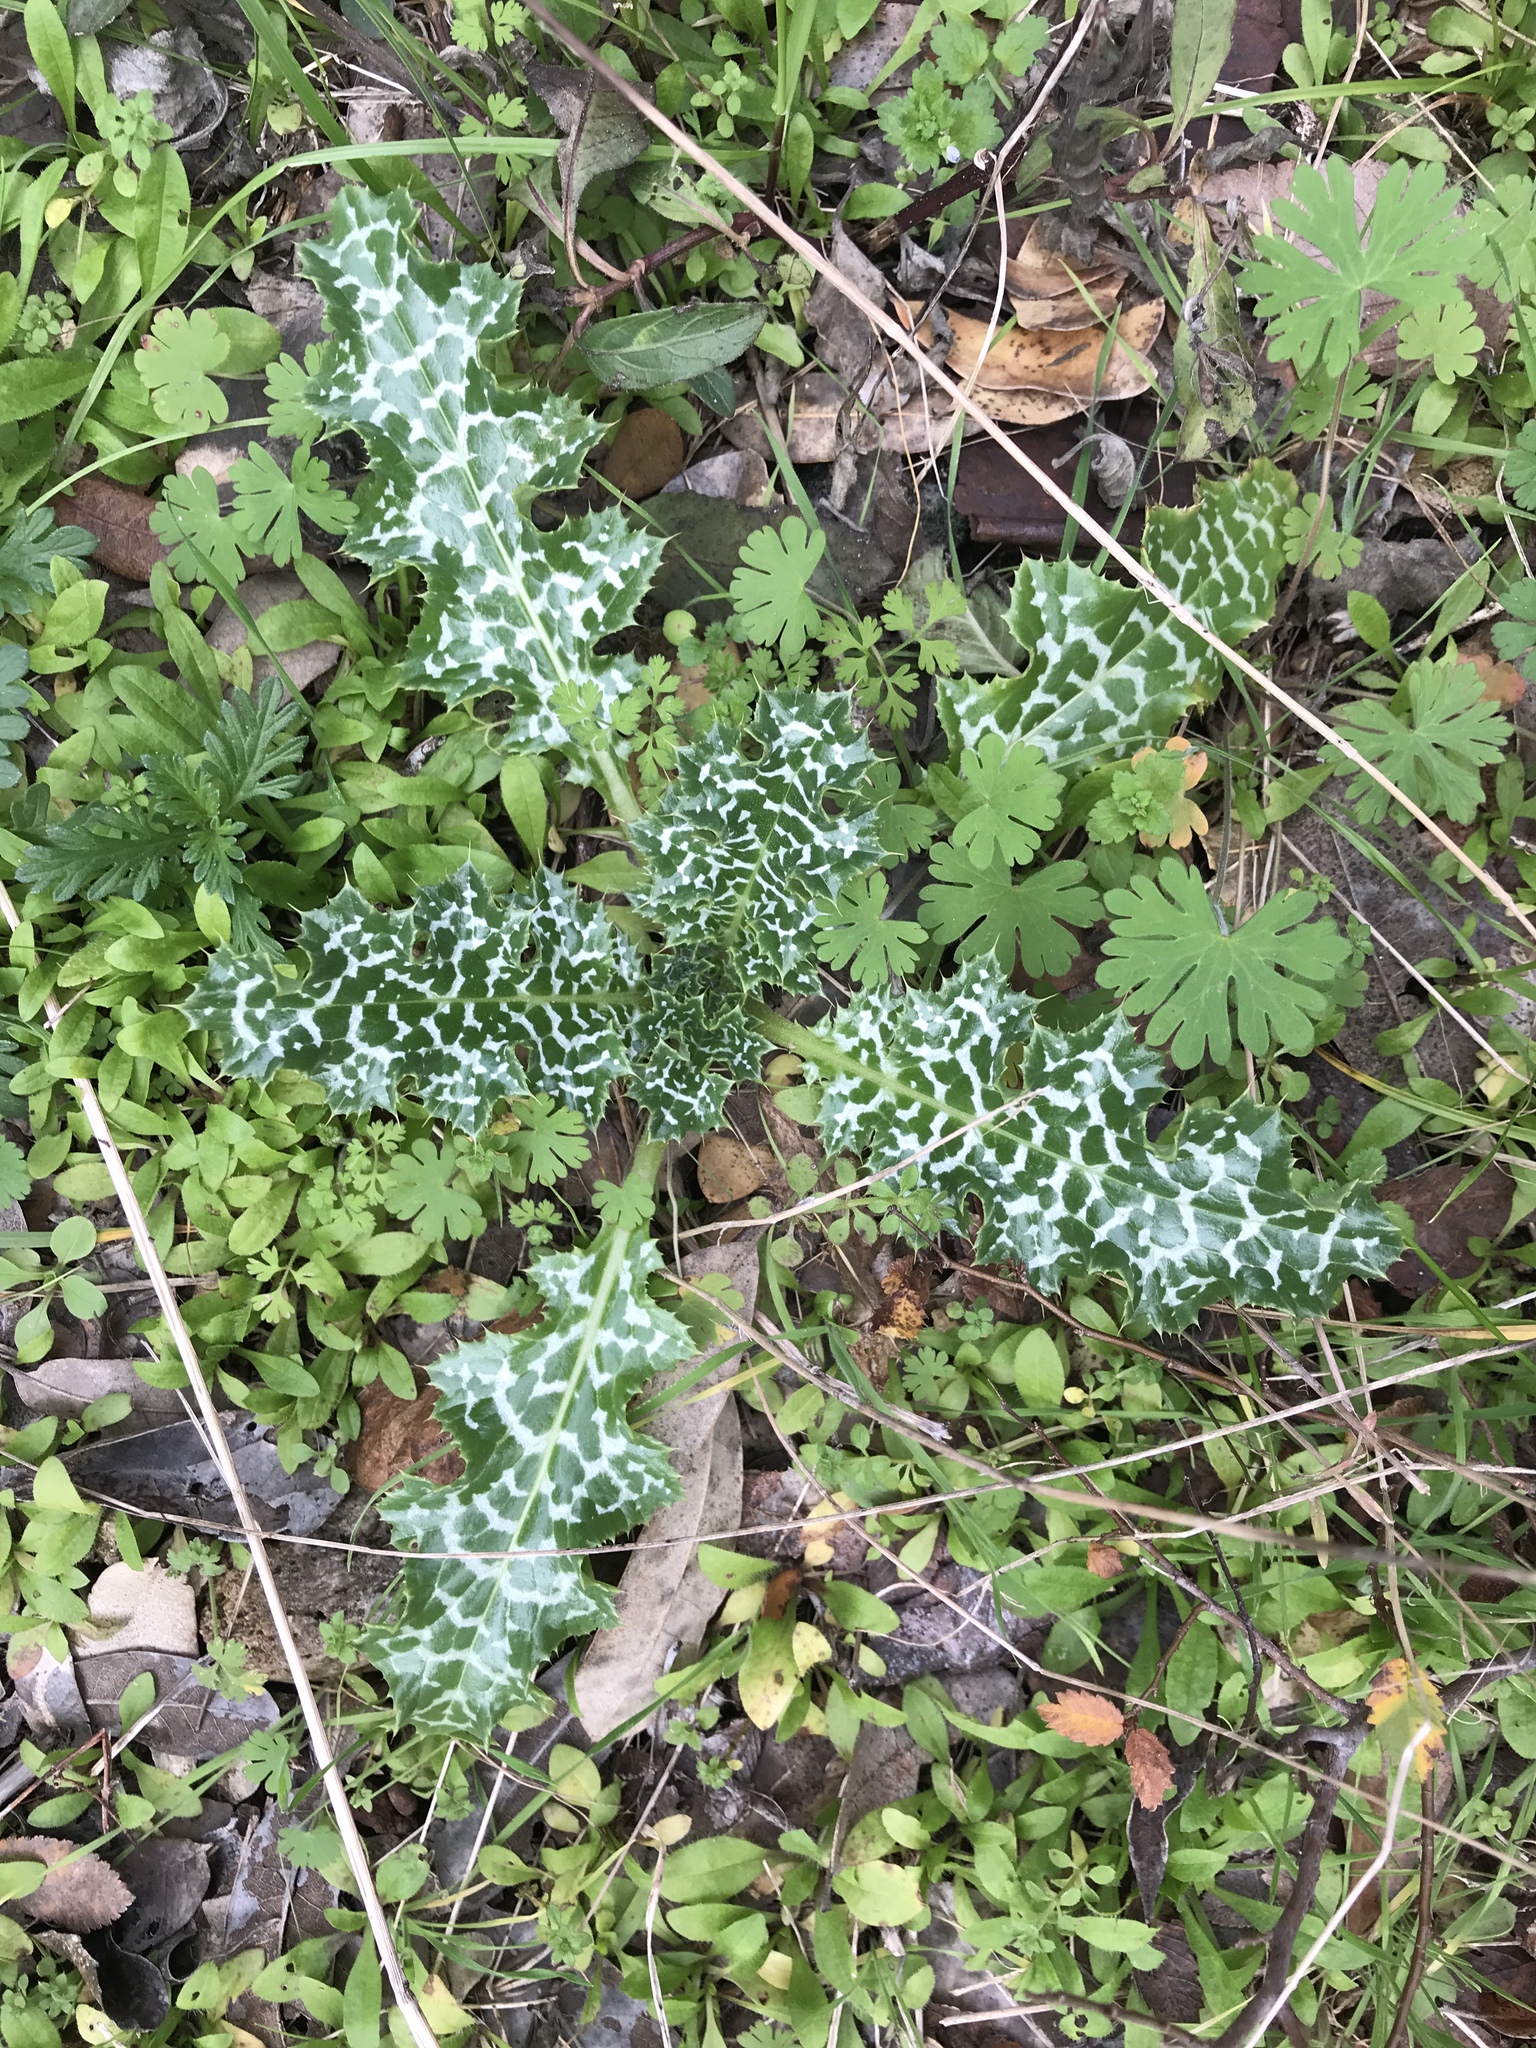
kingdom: Plantae
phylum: Tracheophyta
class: Magnoliopsida
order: Asterales
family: Asteraceae
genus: Silybum
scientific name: Silybum marianum
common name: Milk thistle
